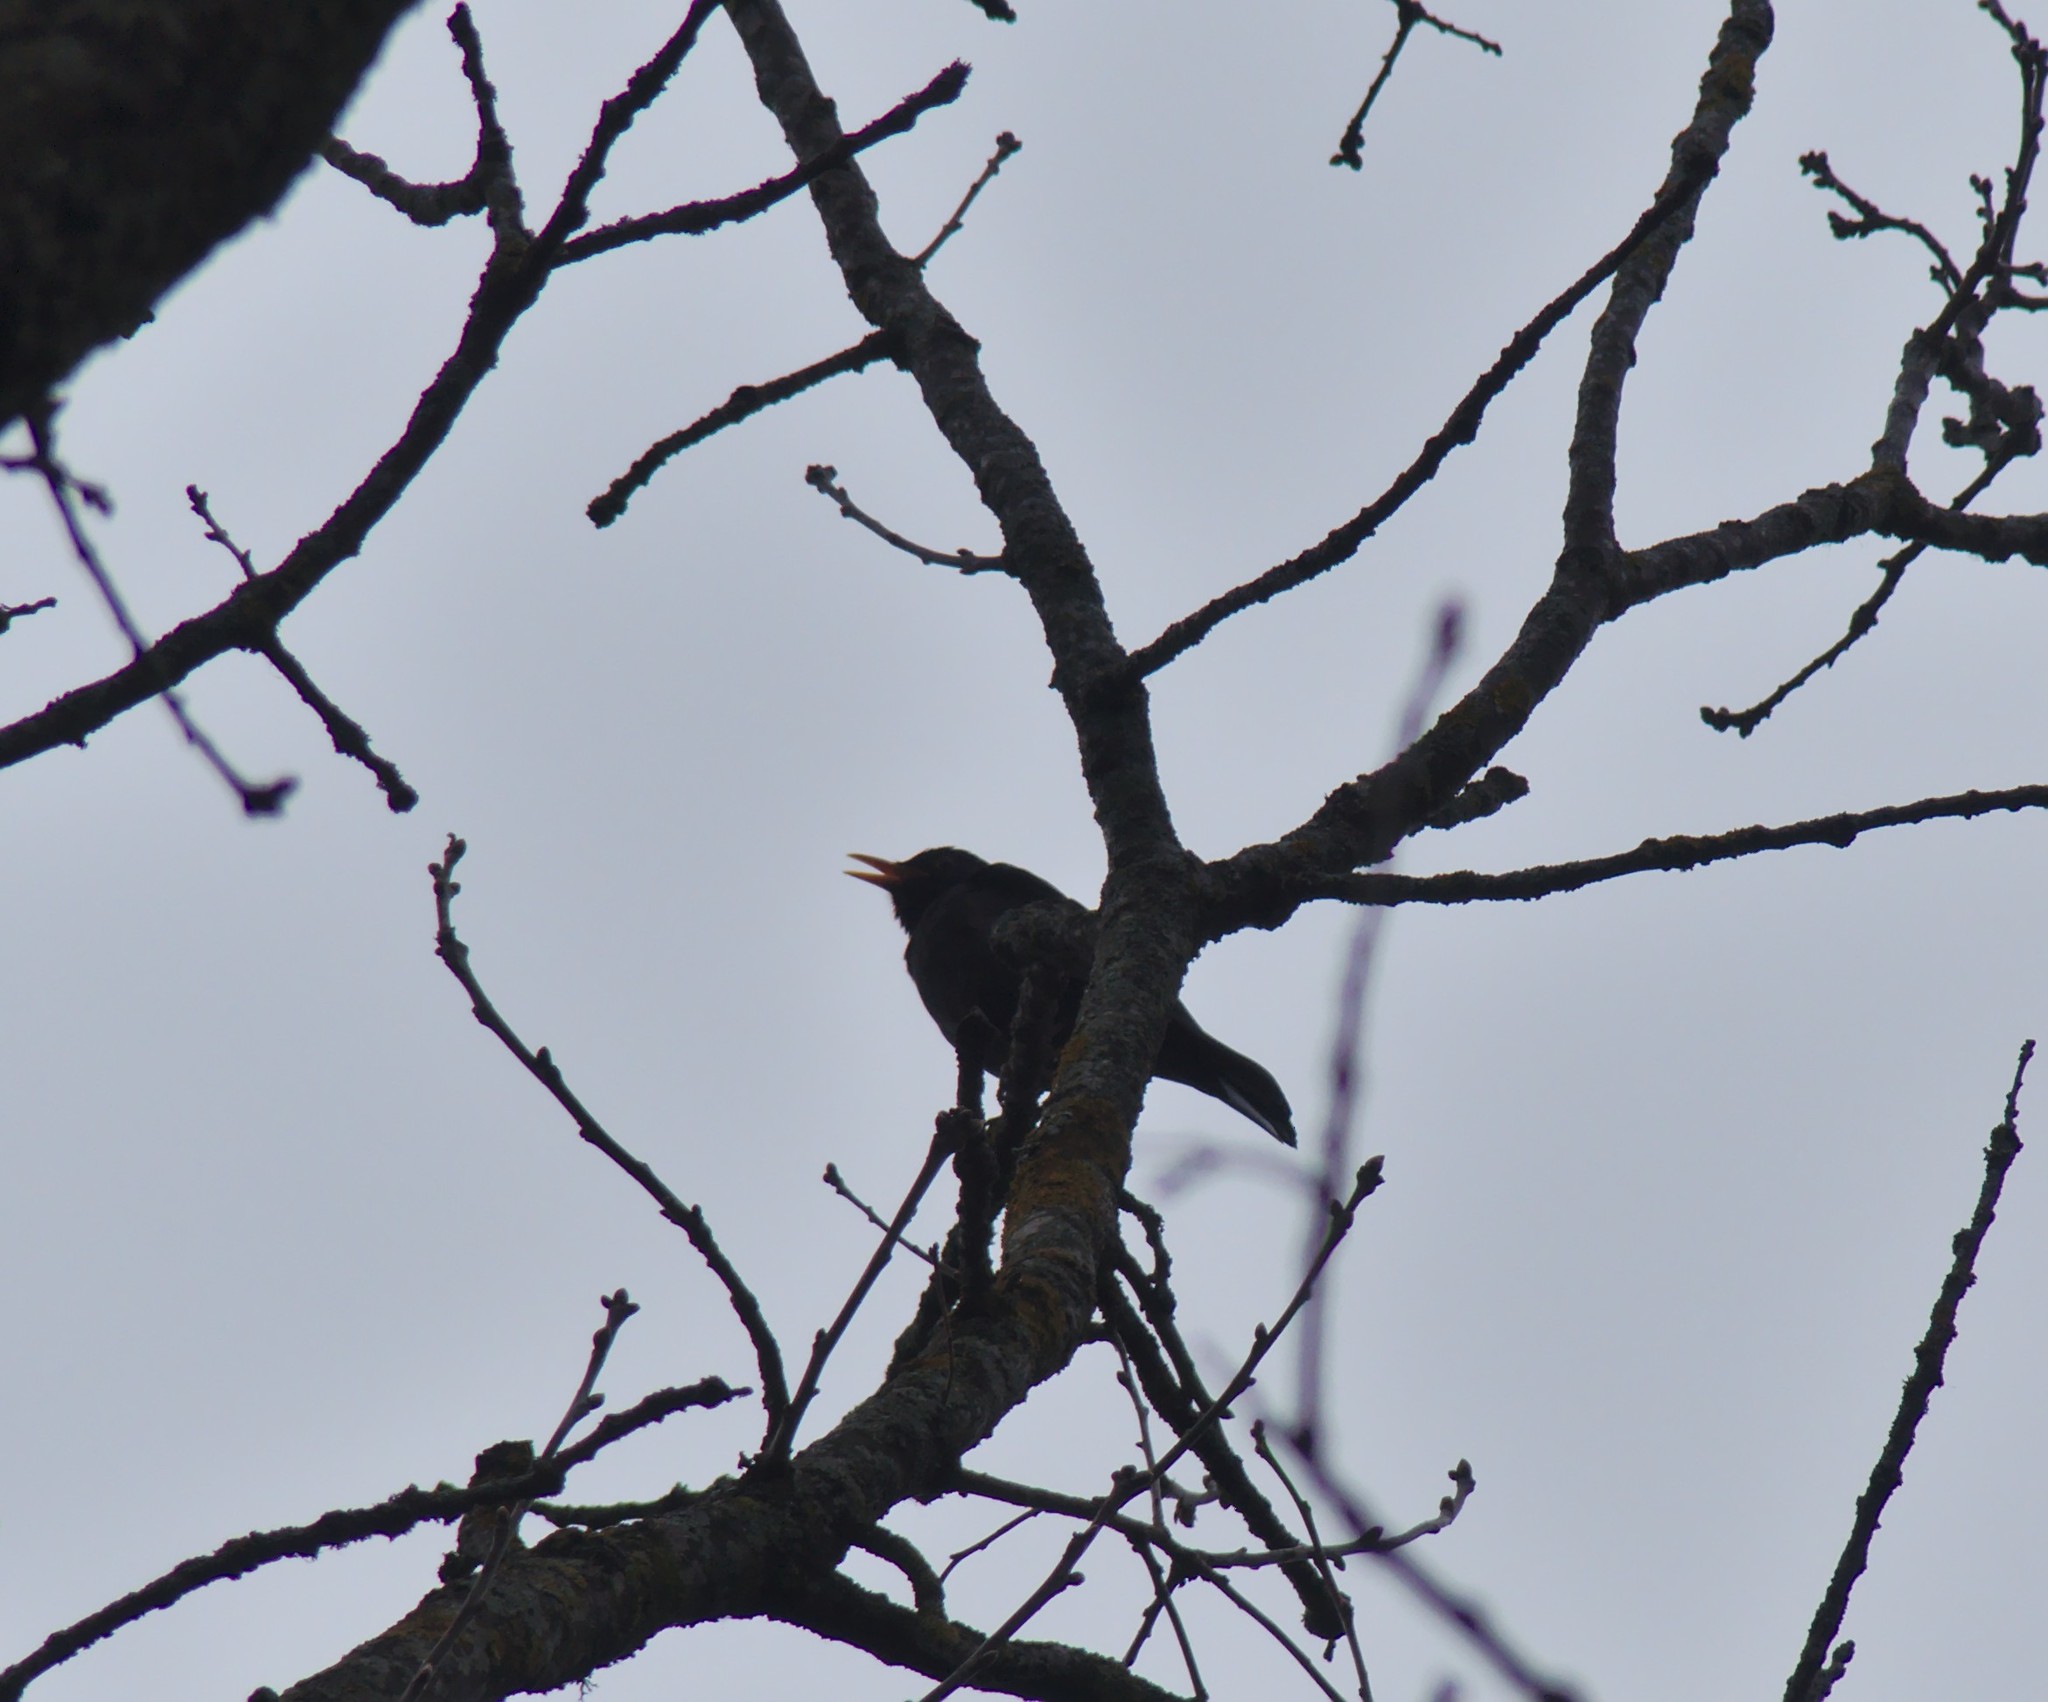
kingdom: Animalia
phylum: Chordata
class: Aves
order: Passeriformes
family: Turdidae
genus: Turdus
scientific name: Turdus merula
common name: Common blackbird
